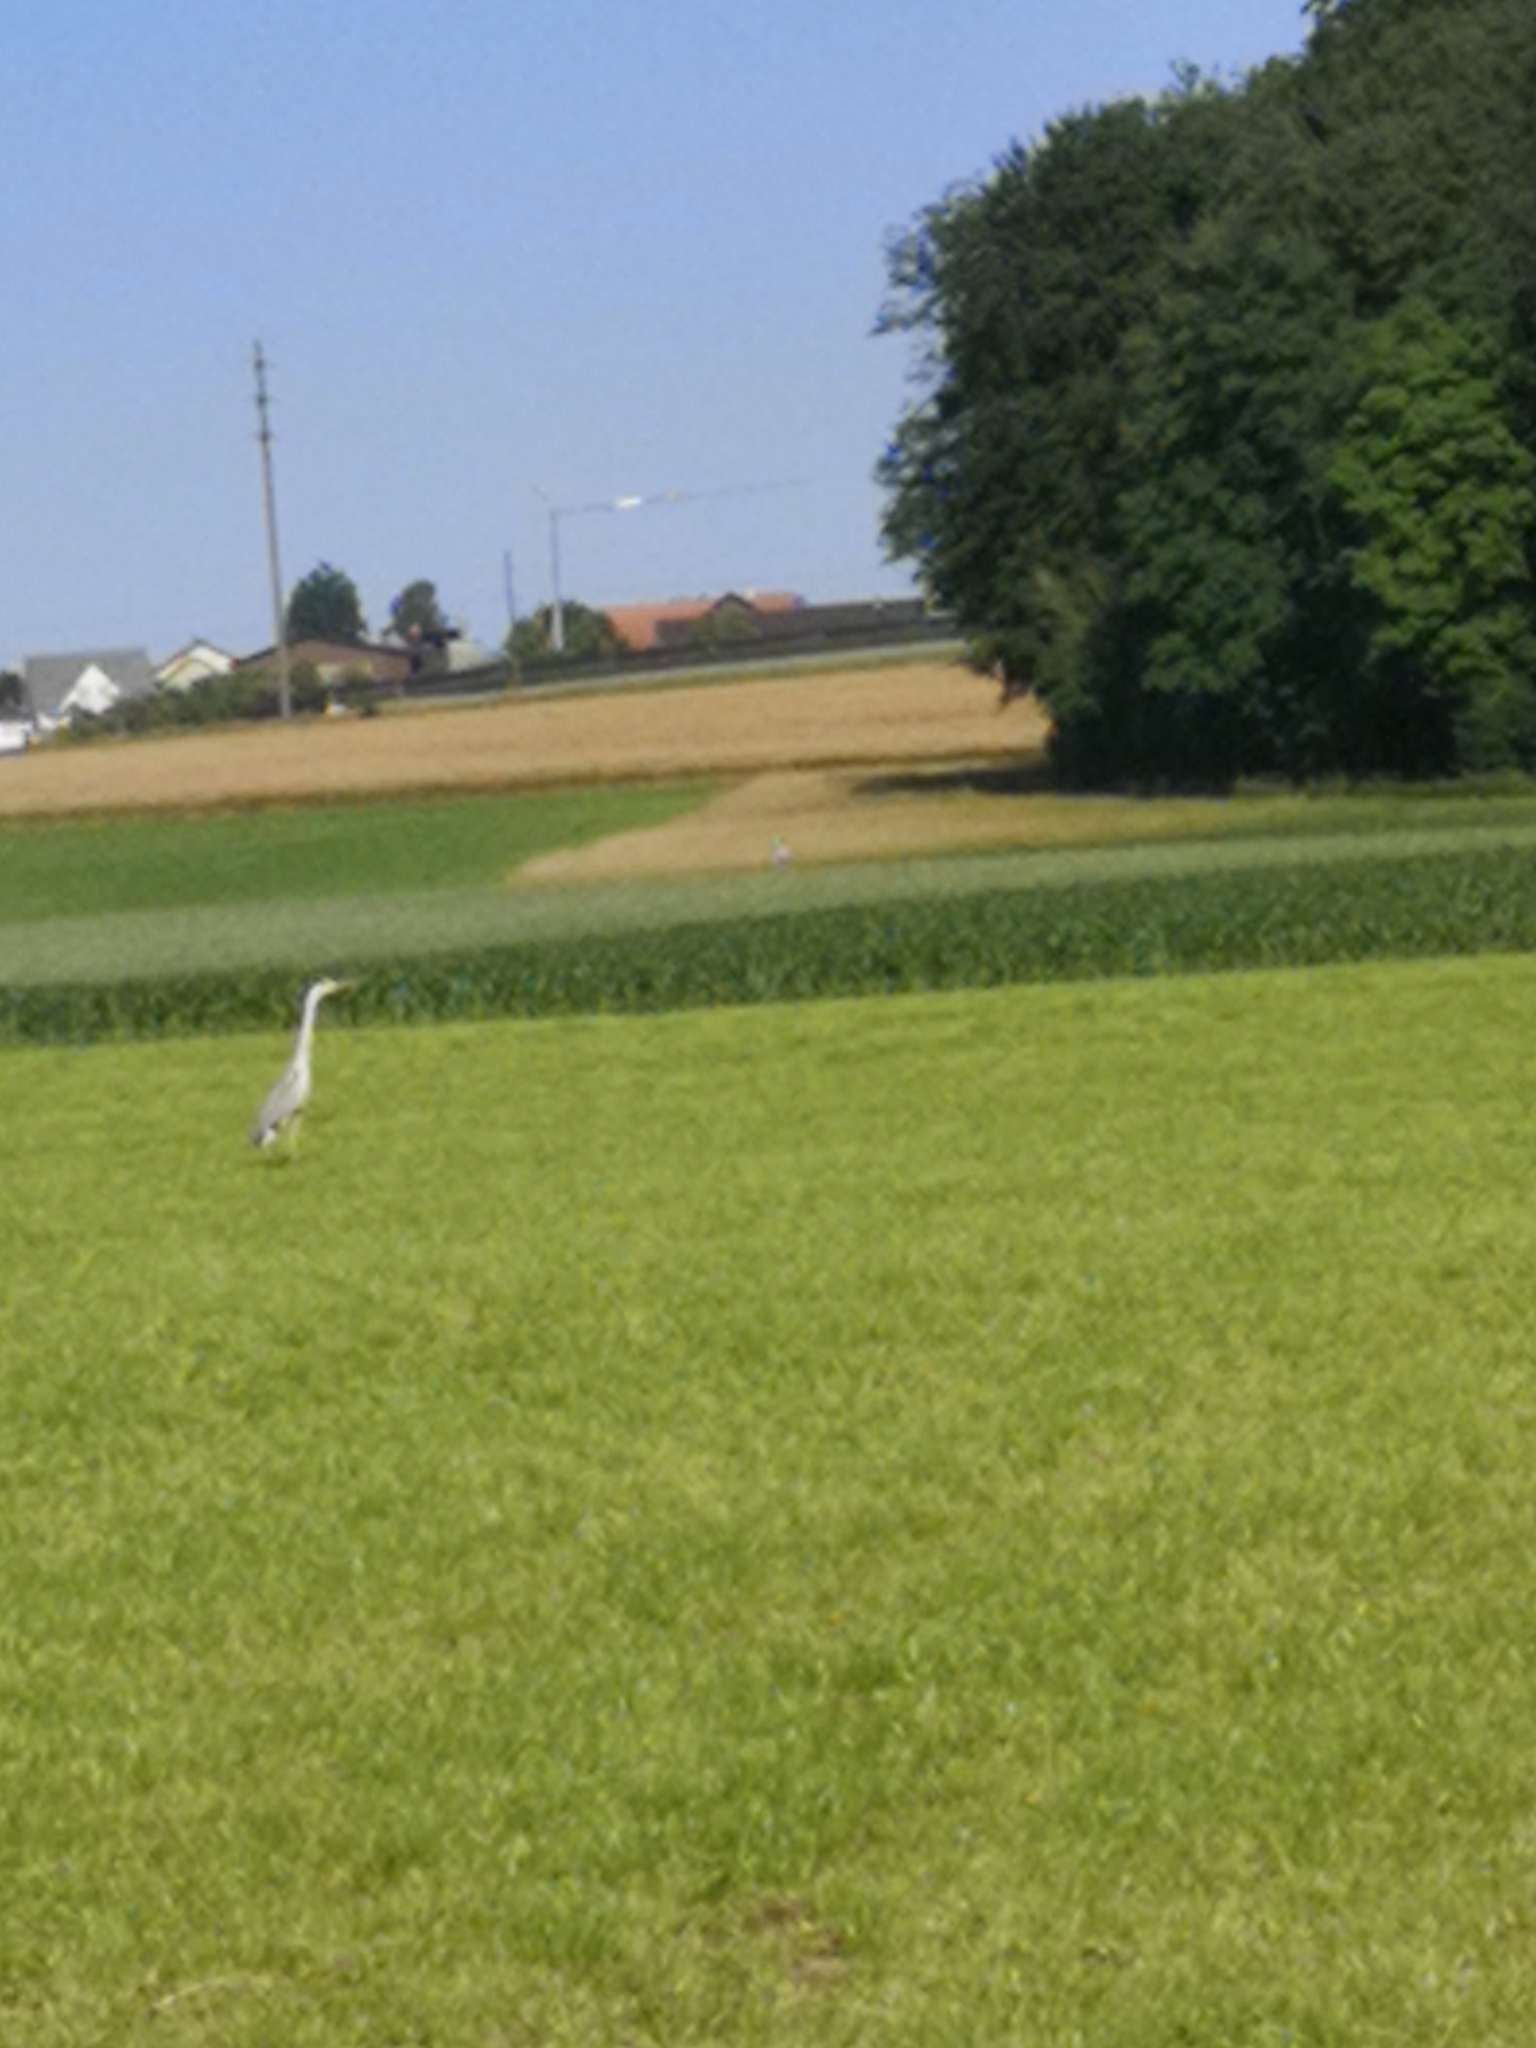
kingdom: Animalia
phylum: Chordata
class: Aves
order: Pelecaniformes
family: Ardeidae
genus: Ardea
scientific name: Ardea cinerea
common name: Grey heron
